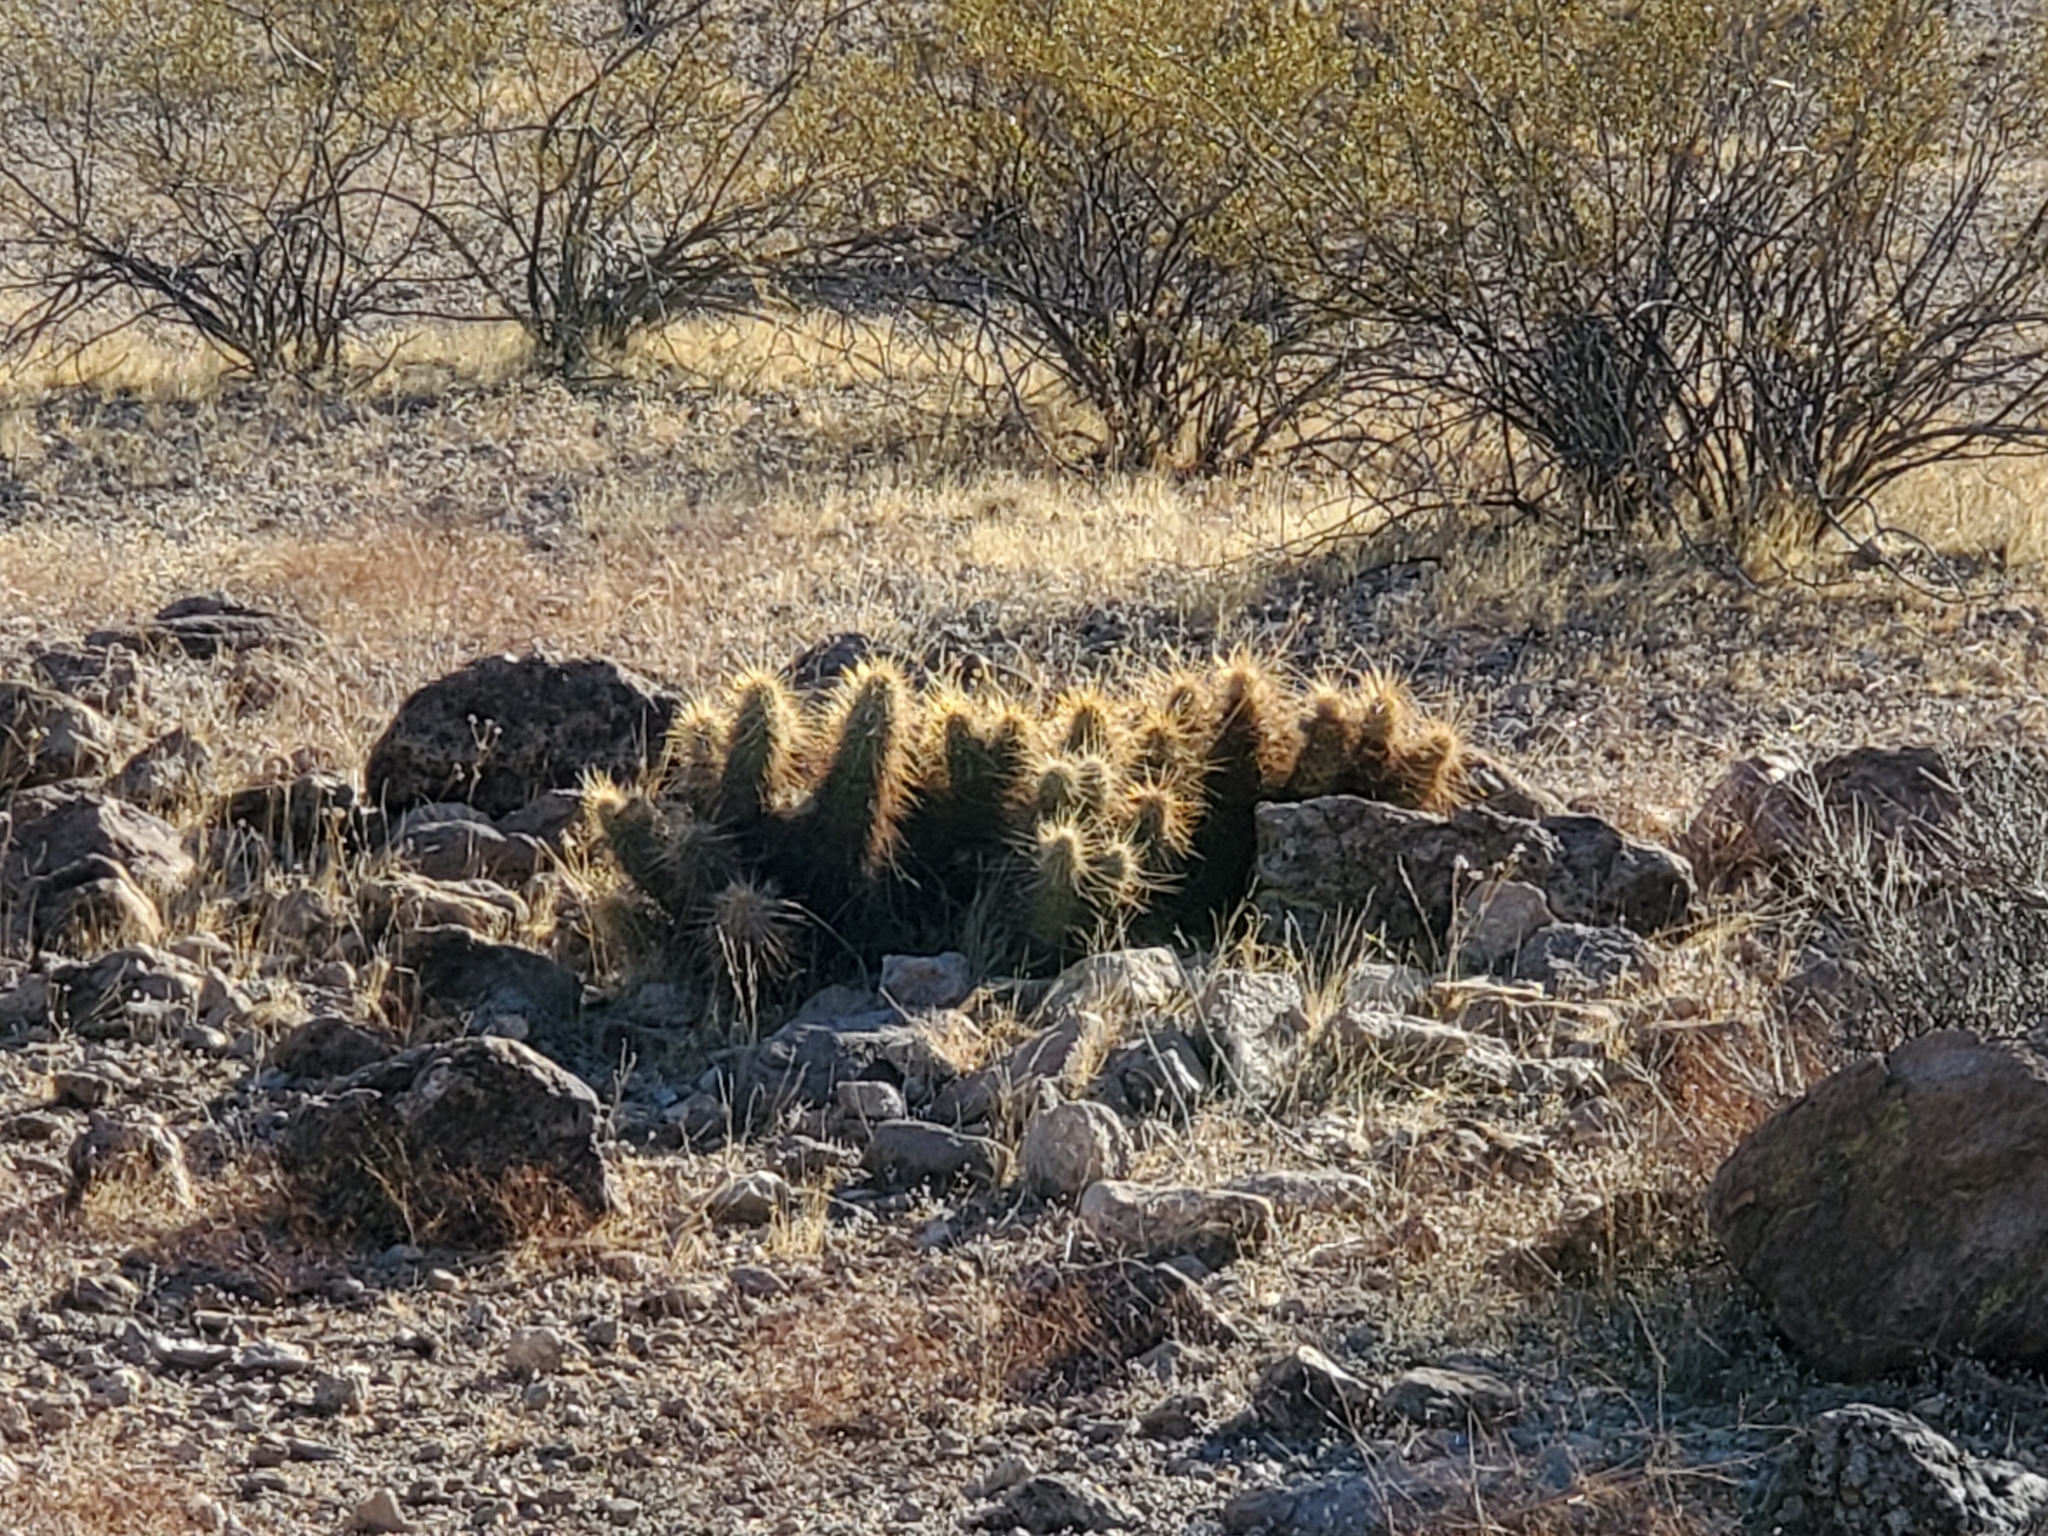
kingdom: Plantae
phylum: Tracheophyta
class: Magnoliopsida
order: Caryophyllales
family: Cactaceae
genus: Echinocereus
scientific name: Echinocereus engelmannii
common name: Engelmann's hedgehog cactus
